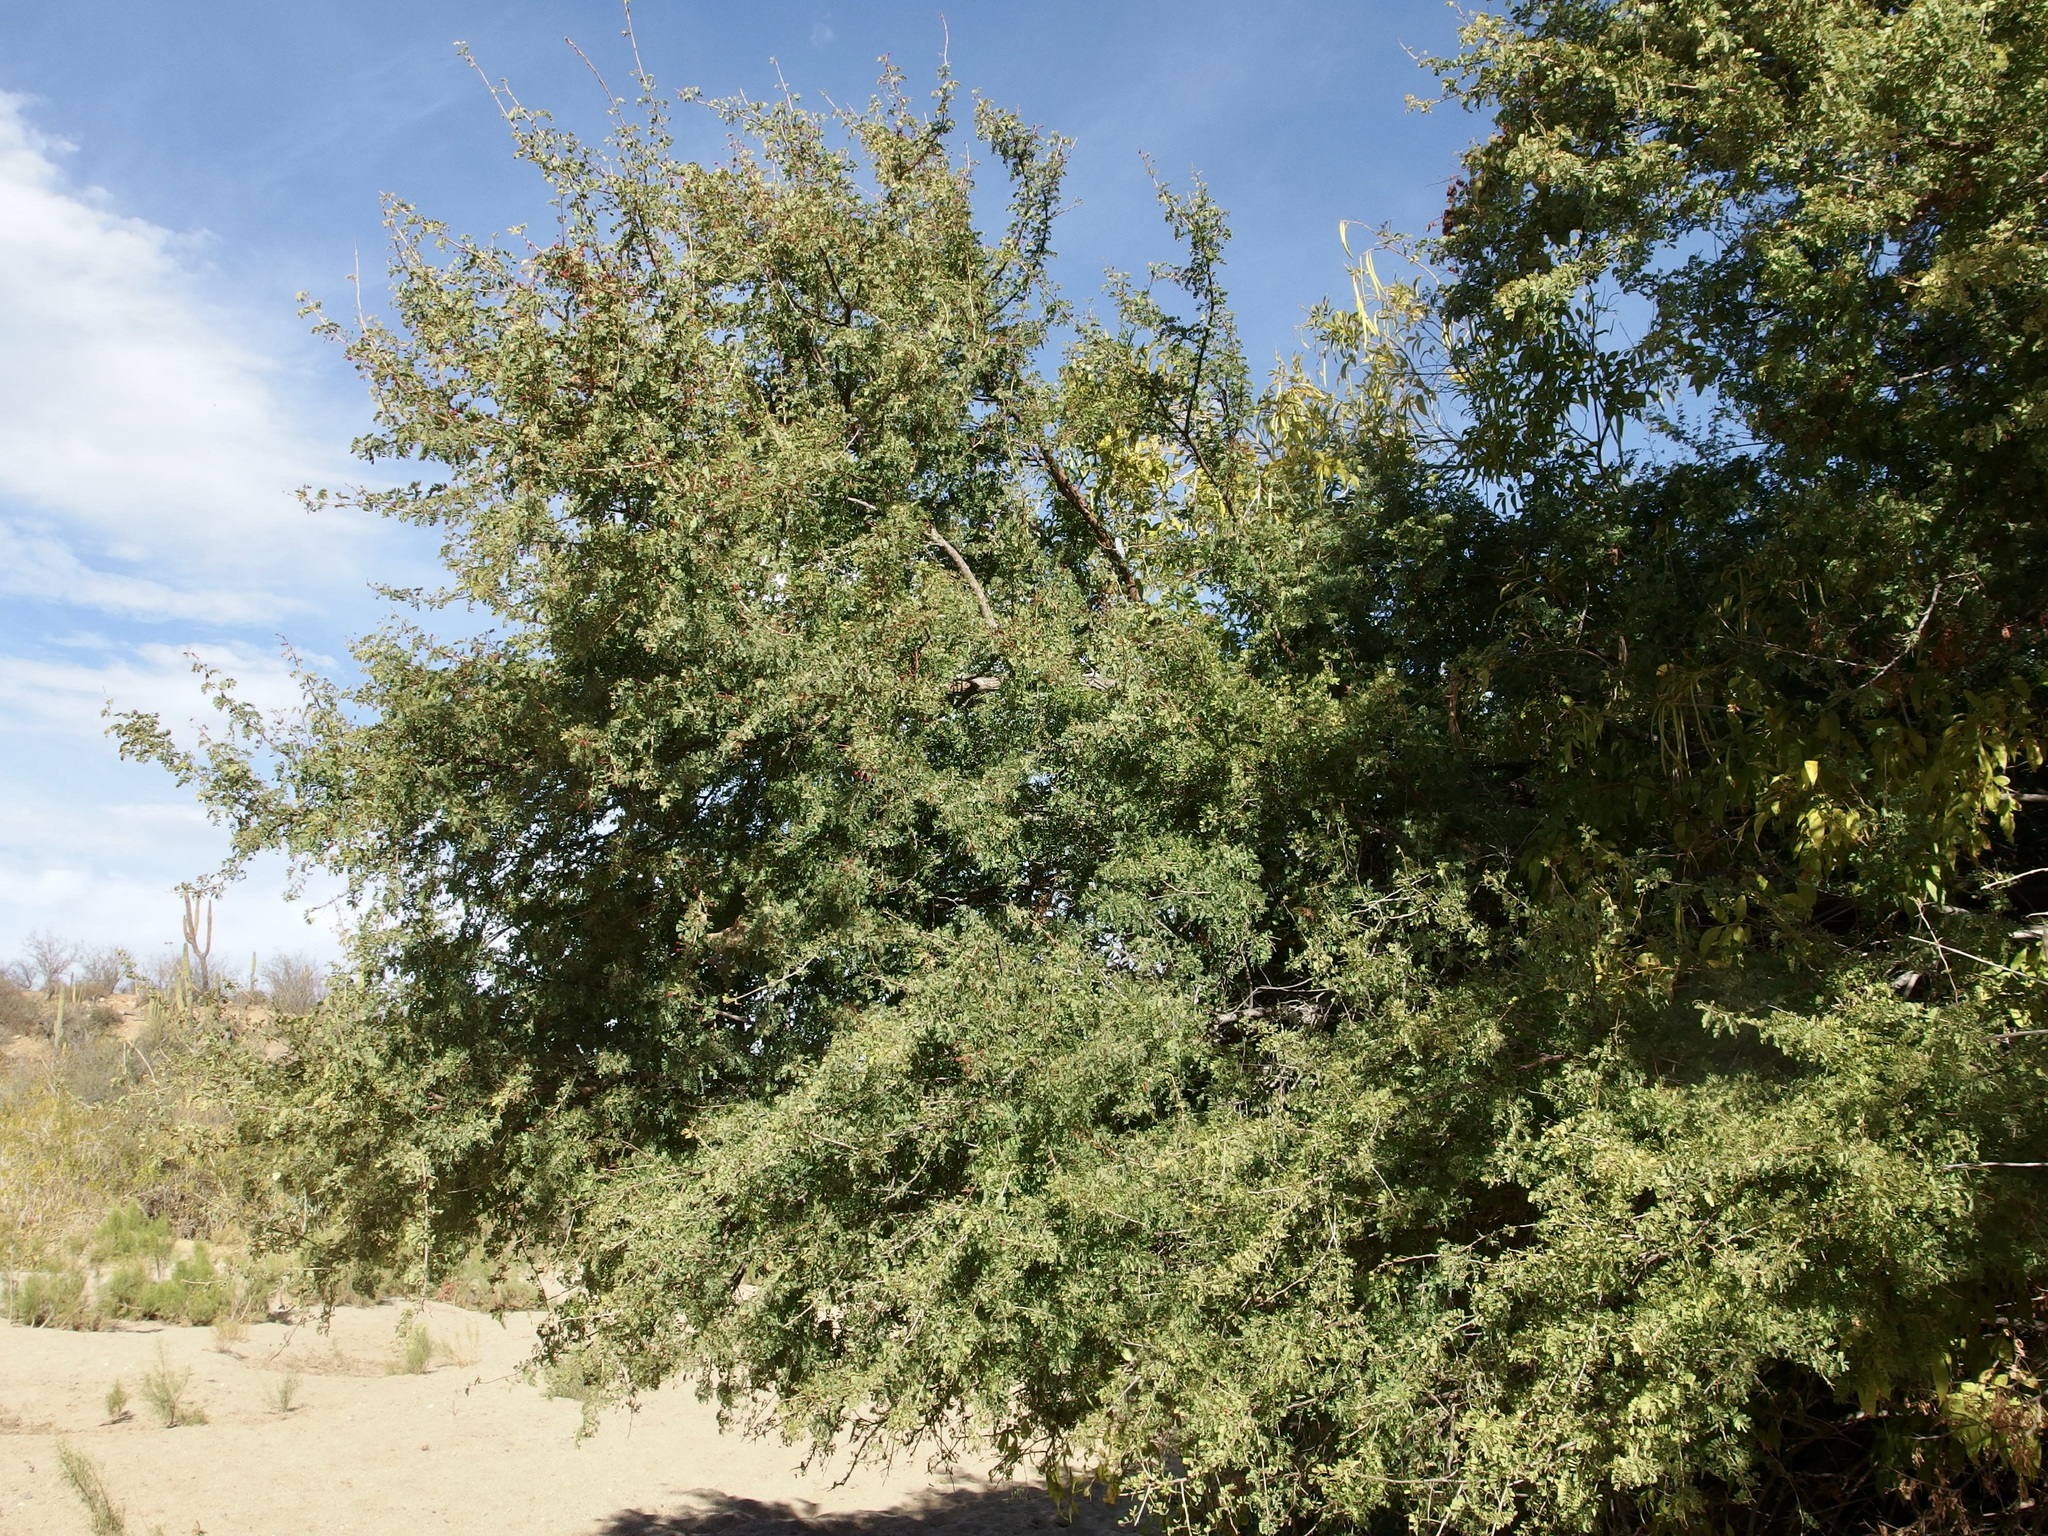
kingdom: Plantae
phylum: Tracheophyta
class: Magnoliopsida
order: Fabales
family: Fabaceae
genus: Senegalia
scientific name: Senegalia peninsularis
